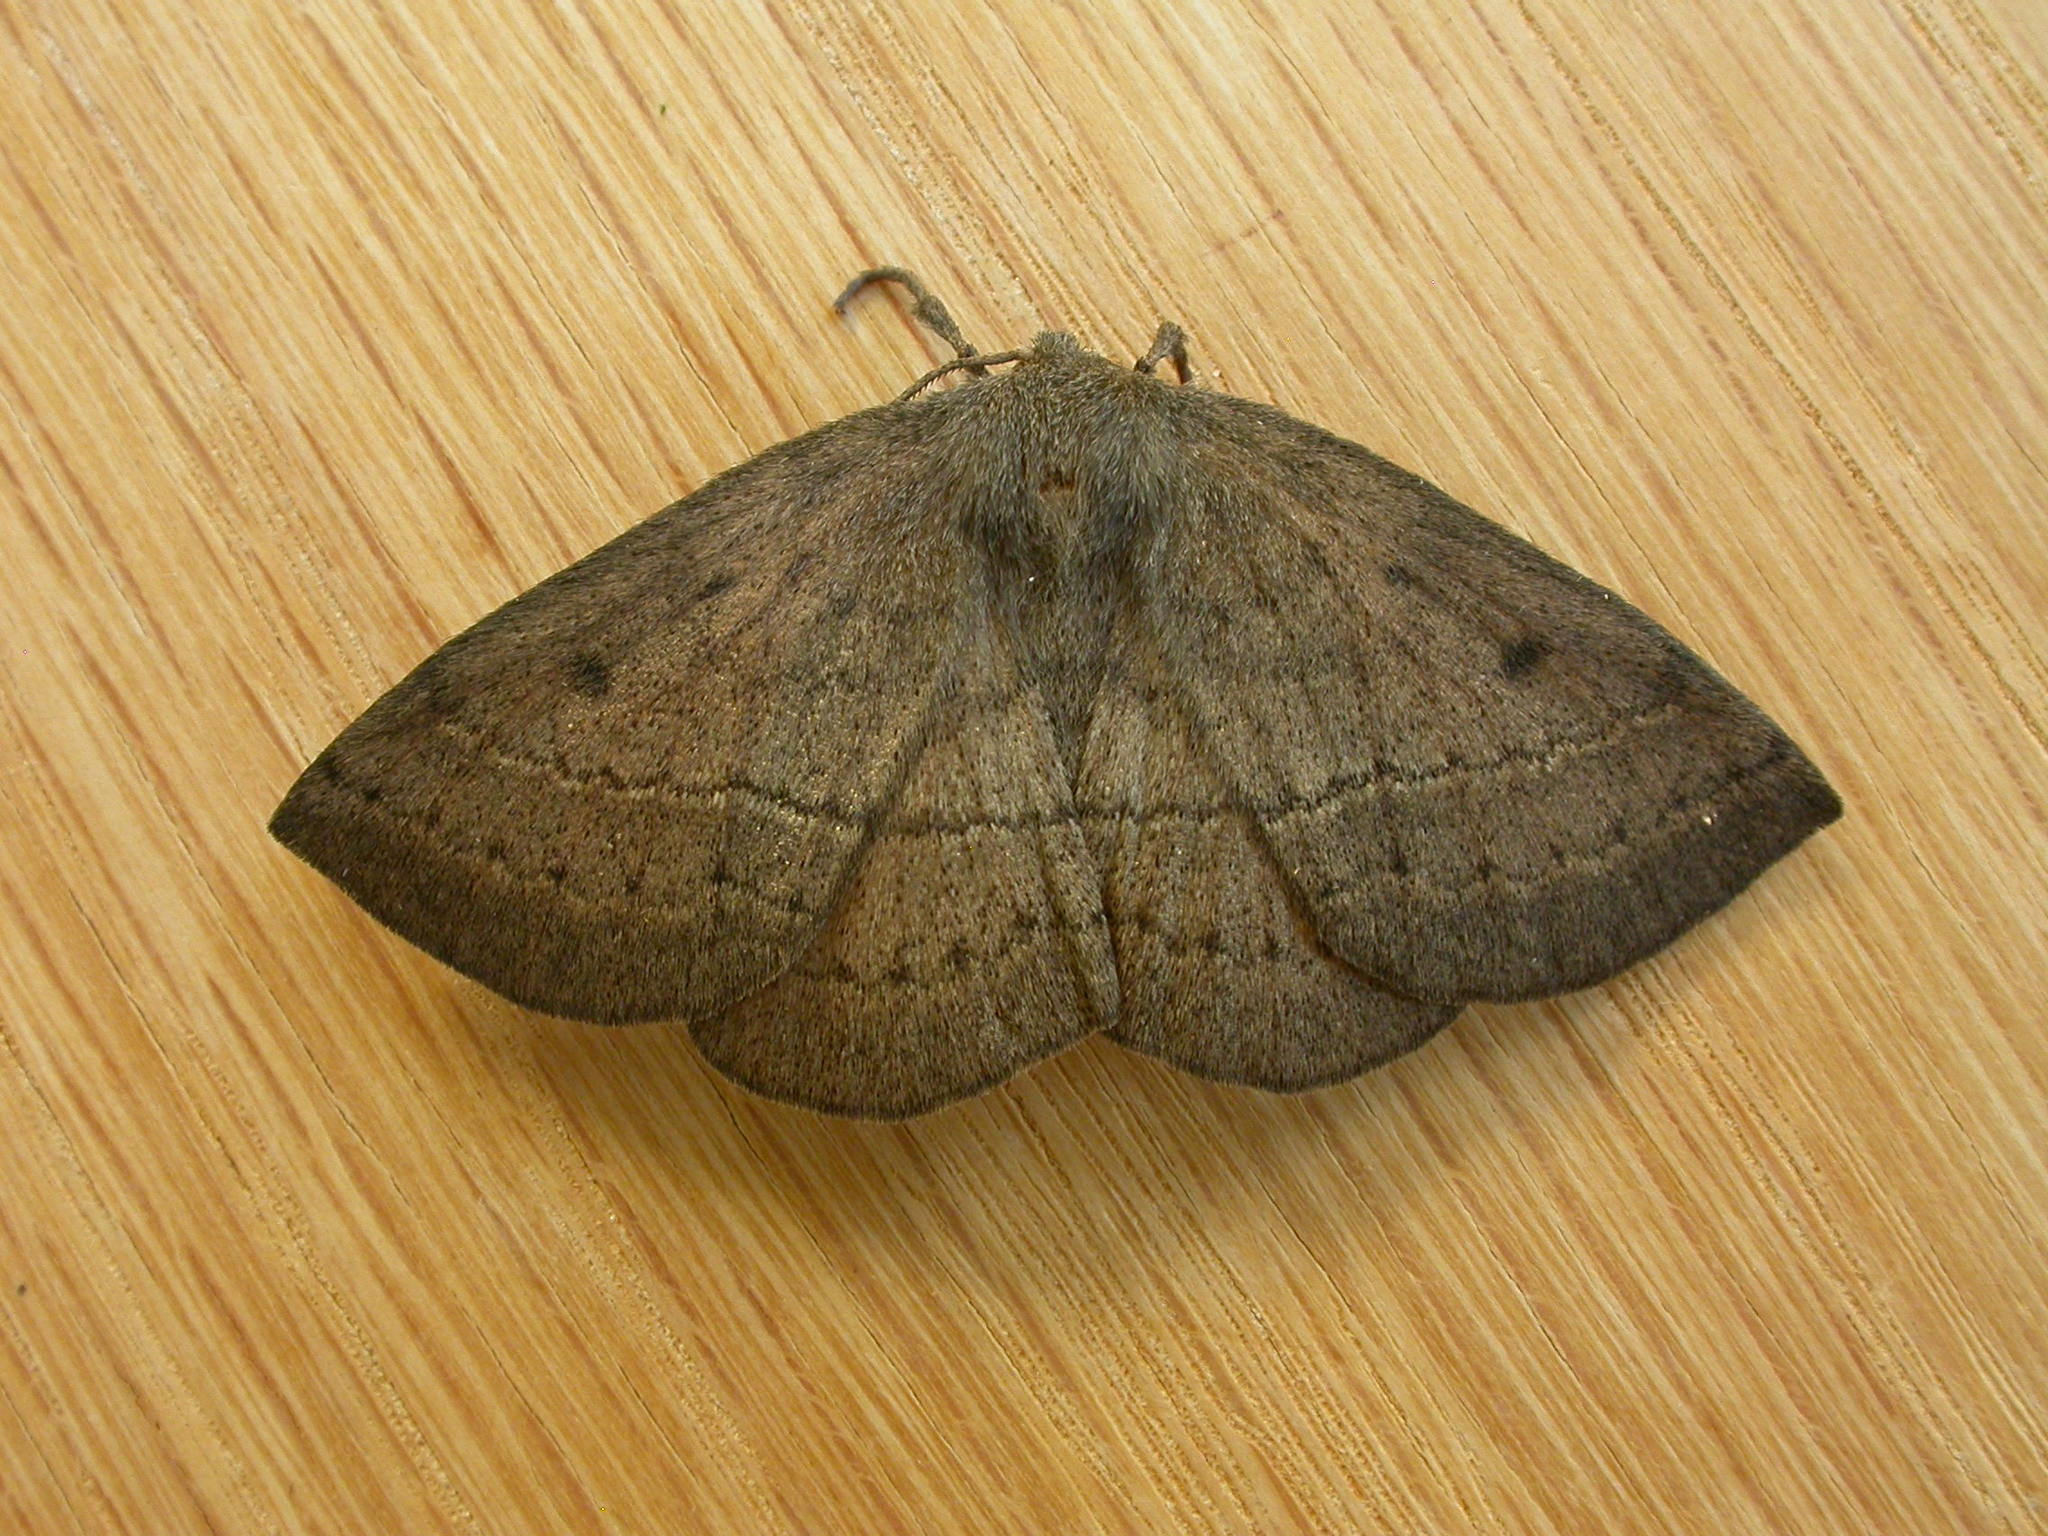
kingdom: Animalia
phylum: Arthropoda
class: Insecta
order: Lepidoptera
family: Anthelidae
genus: Anthela
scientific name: Anthela repleta
